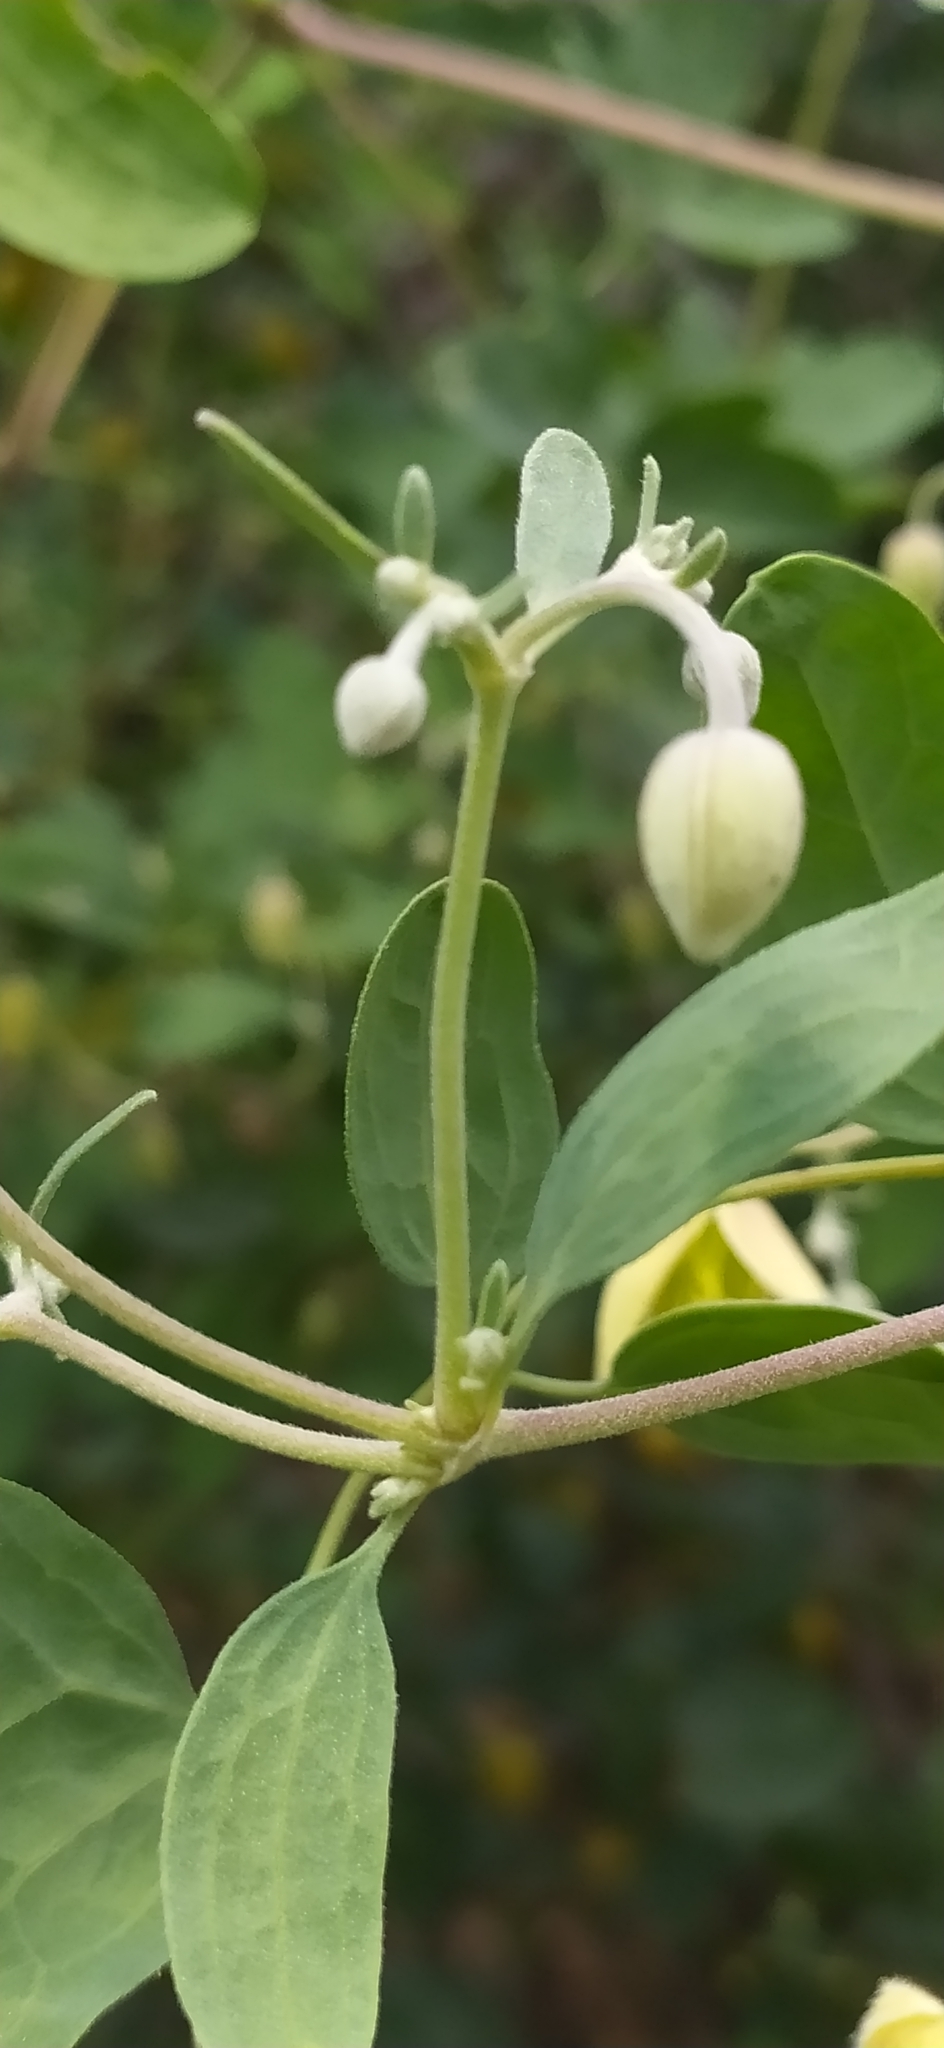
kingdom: Plantae
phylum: Tracheophyta
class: Magnoliopsida
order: Ranunculales
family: Ranunculaceae
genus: Clematis
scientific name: Clematis orientalis
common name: Oriental virgin's-bower
